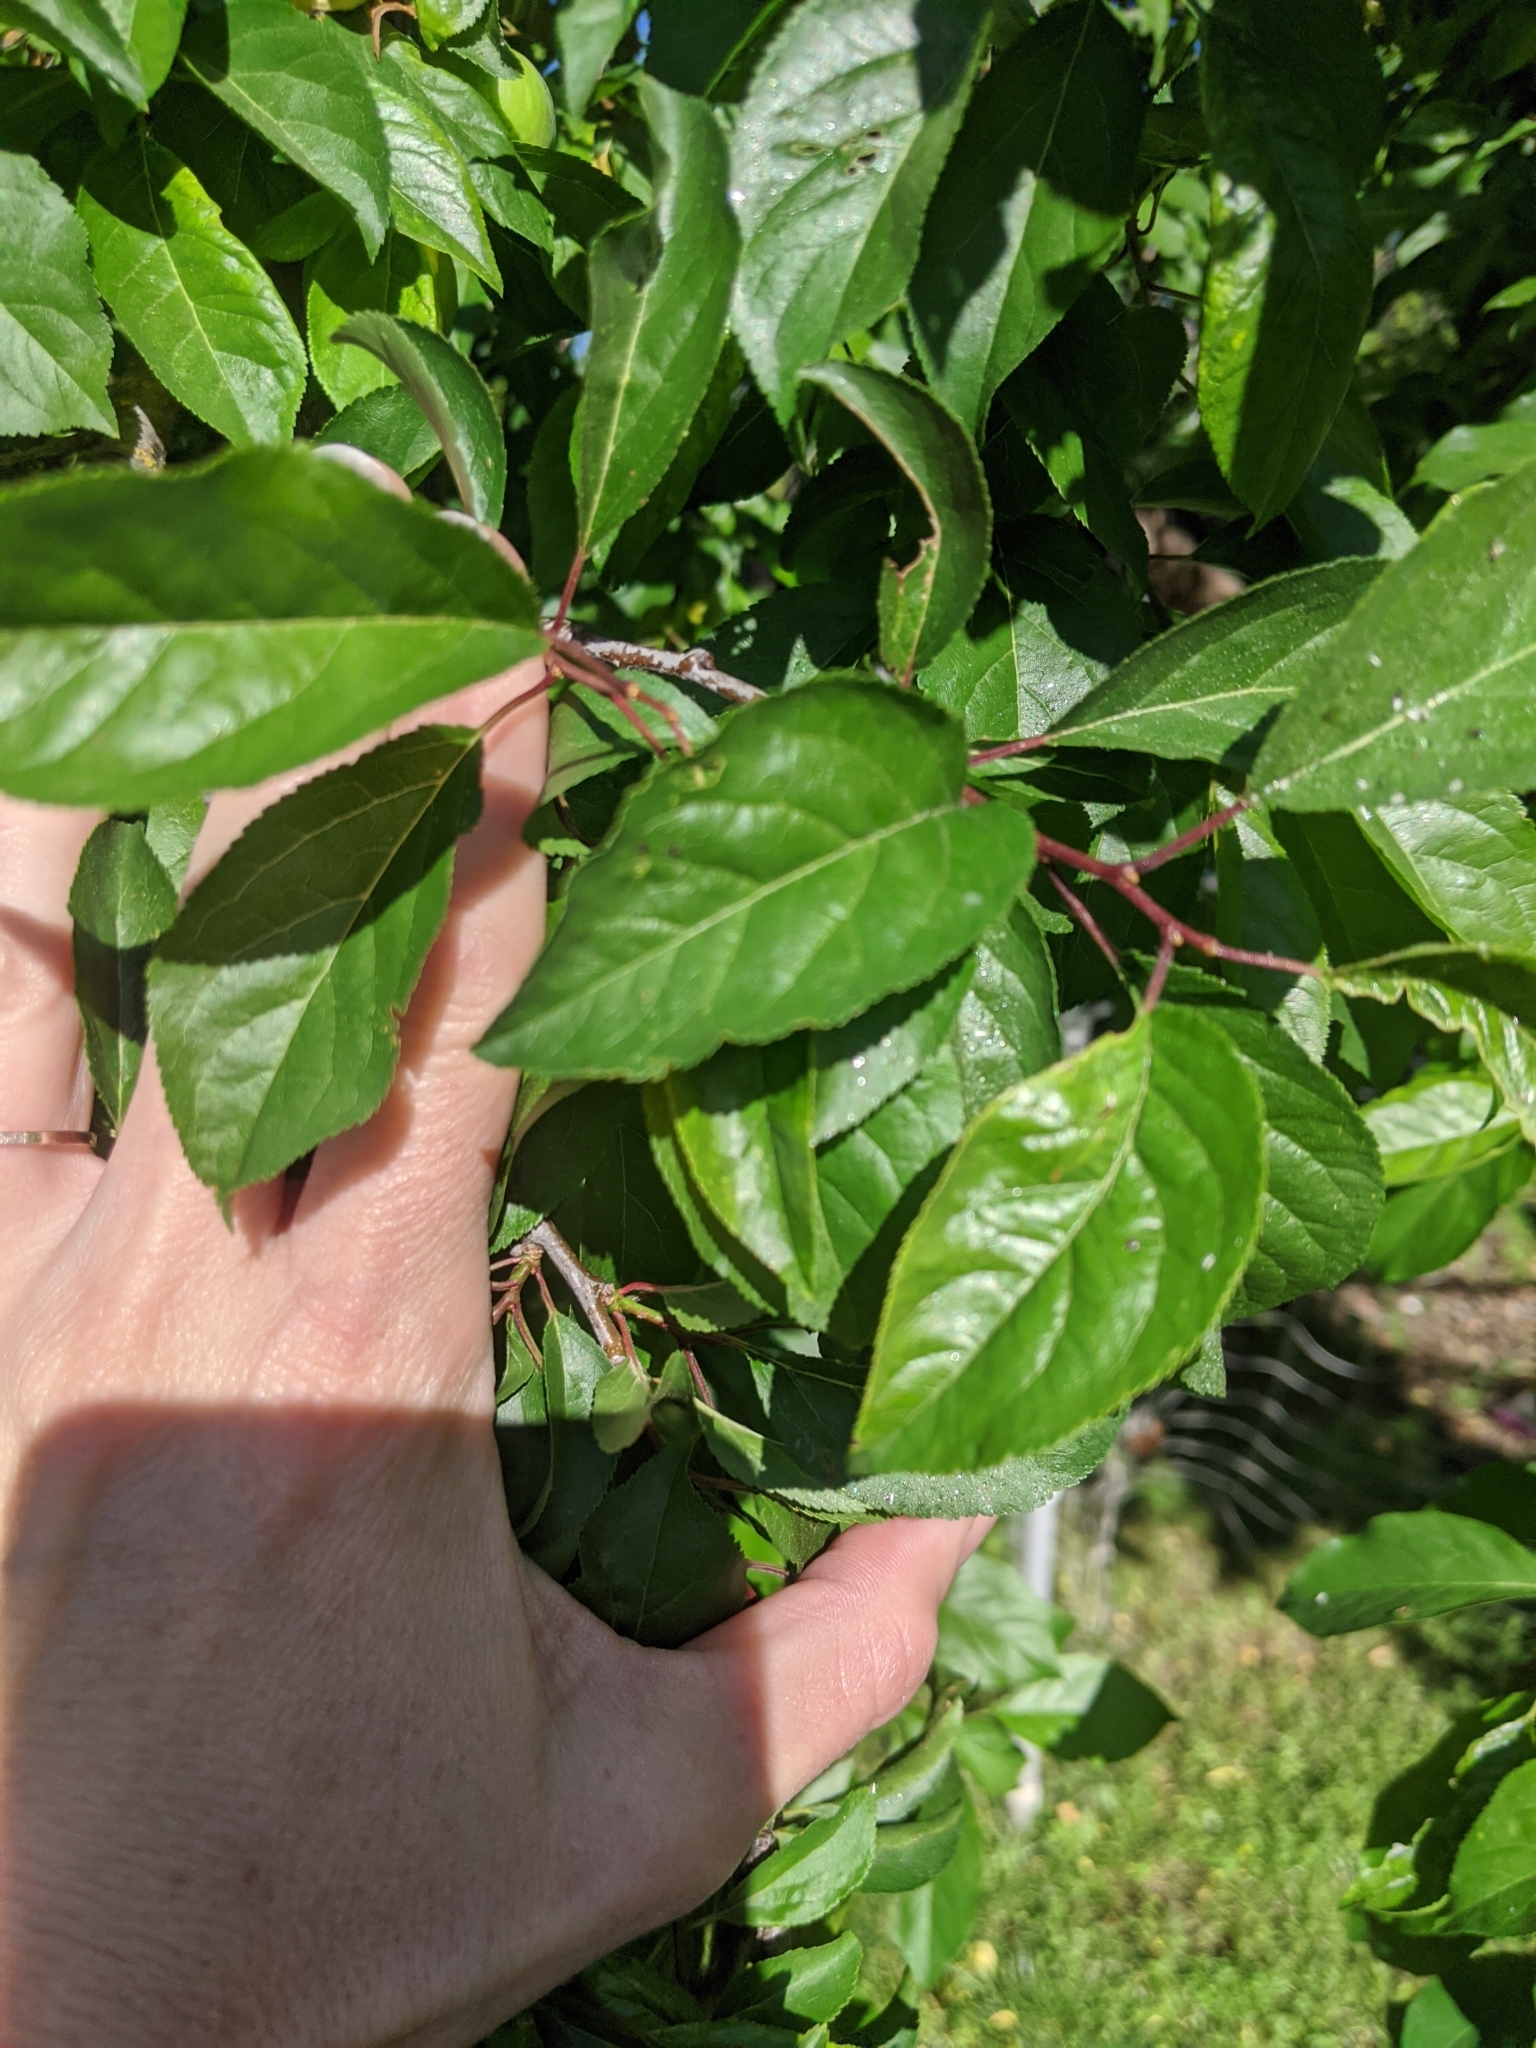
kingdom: Plantae
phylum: Tracheophyta
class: Magnoliopsida
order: Rosales
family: Rosaceae
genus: Prunus
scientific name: Prunus cerasifera
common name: Cherry plum
